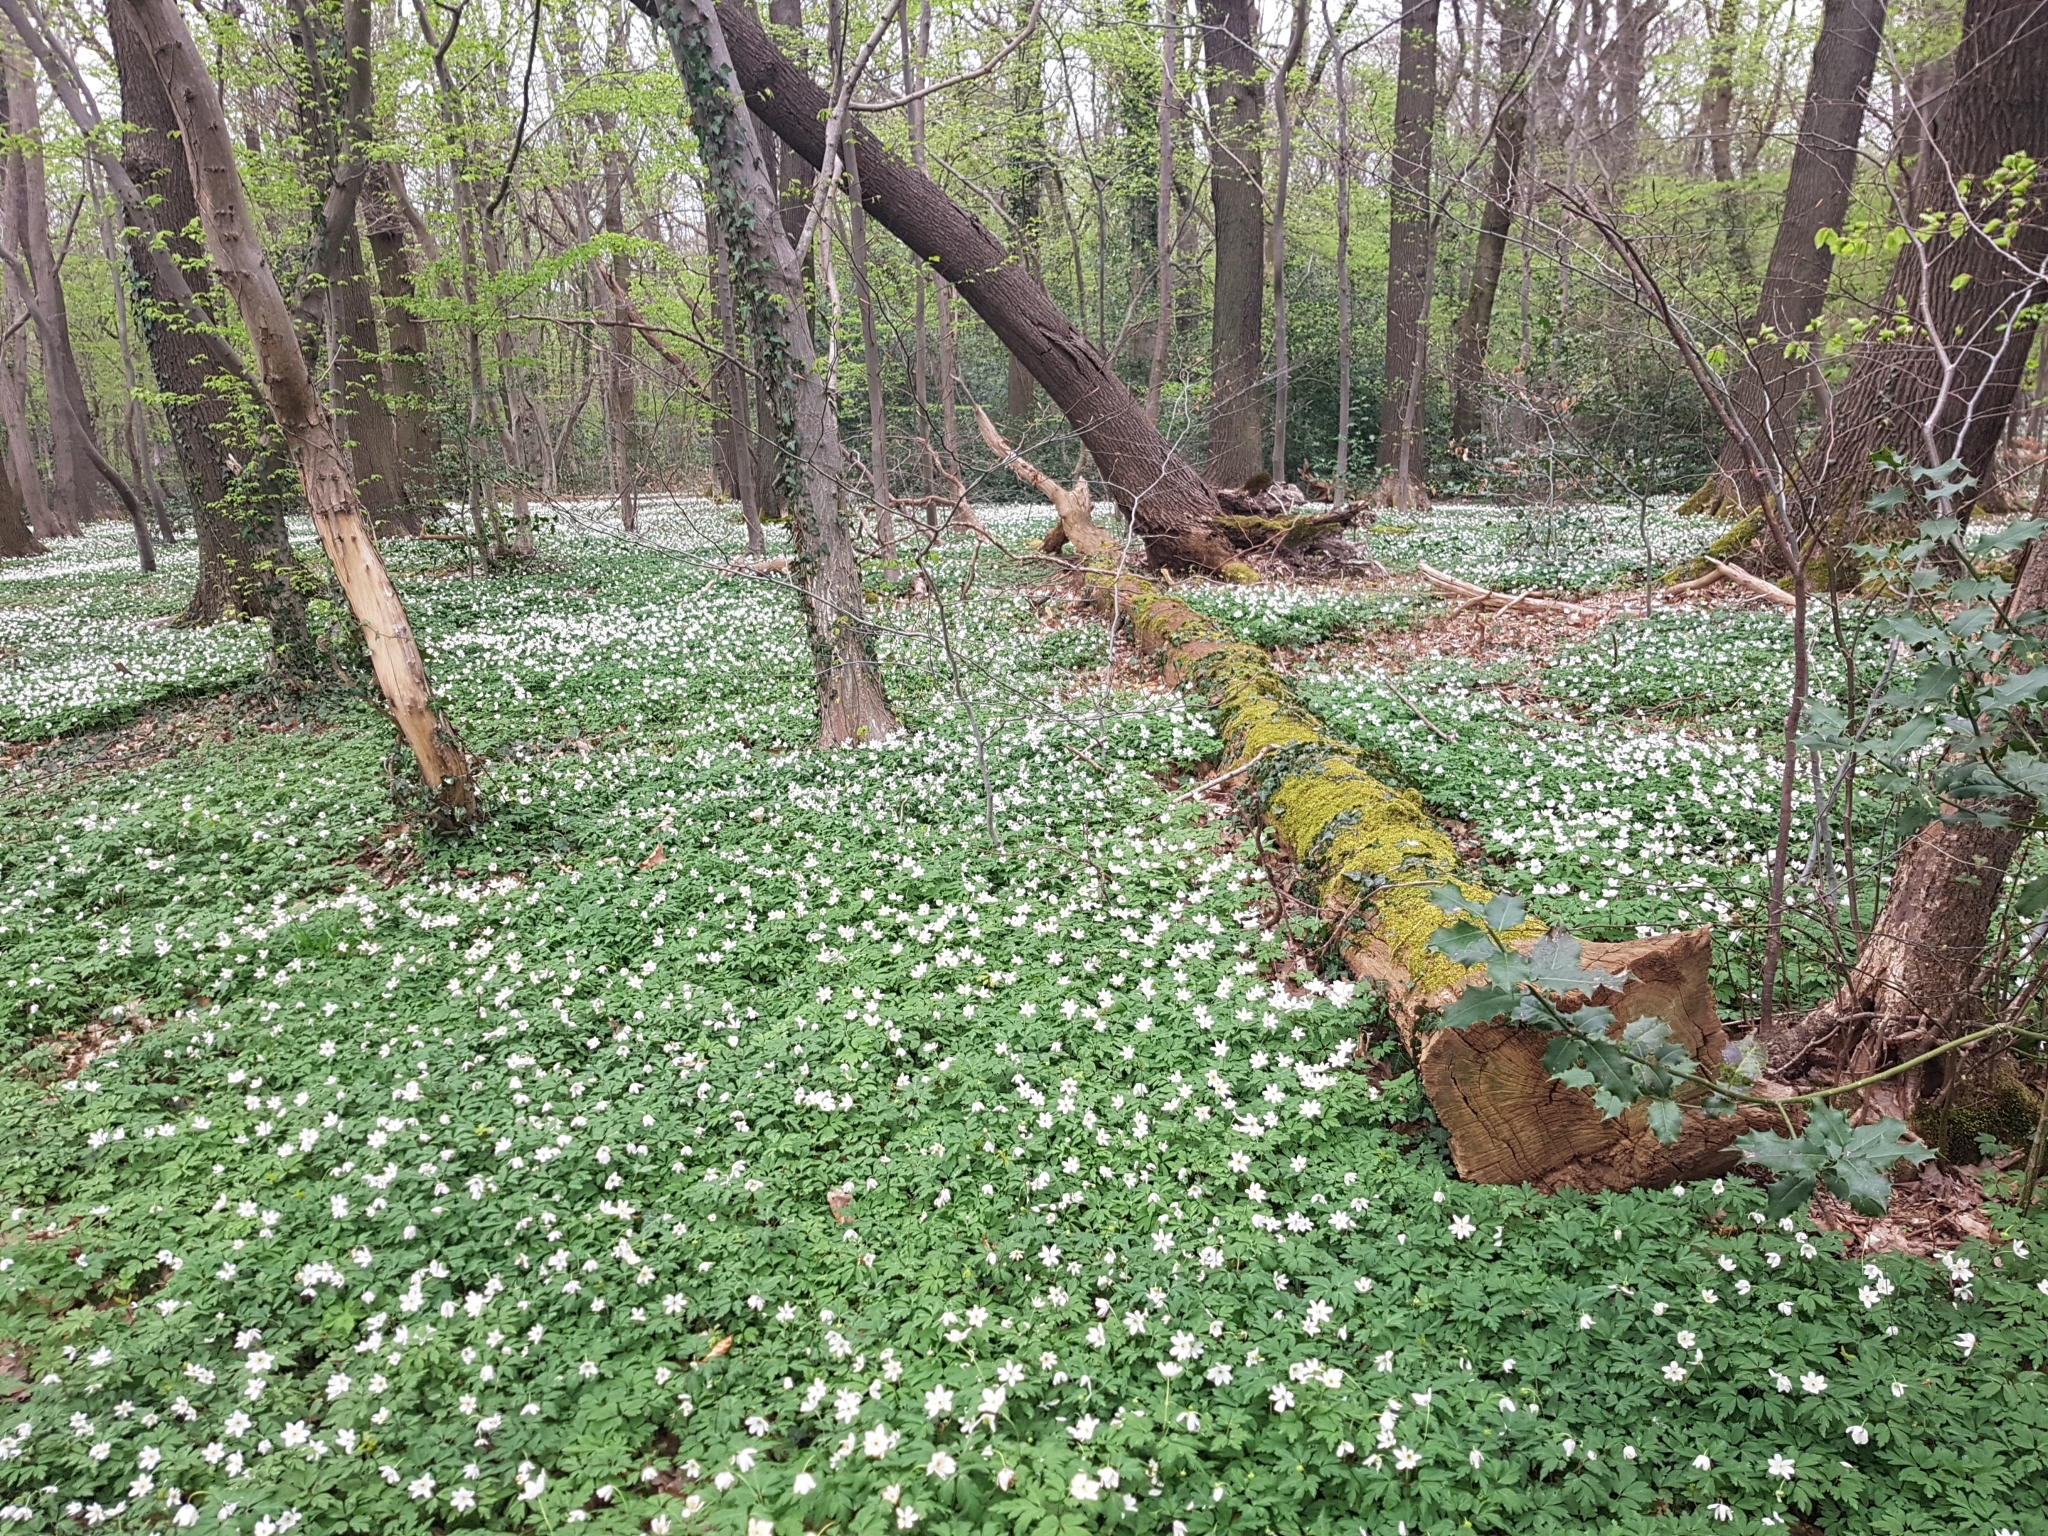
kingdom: Plantae
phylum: Tracheophyta
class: Magnoliopsida
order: Ranunculales
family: Ranunculaceae
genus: Anemone
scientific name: Anemone nemorosa
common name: Wood anemone
